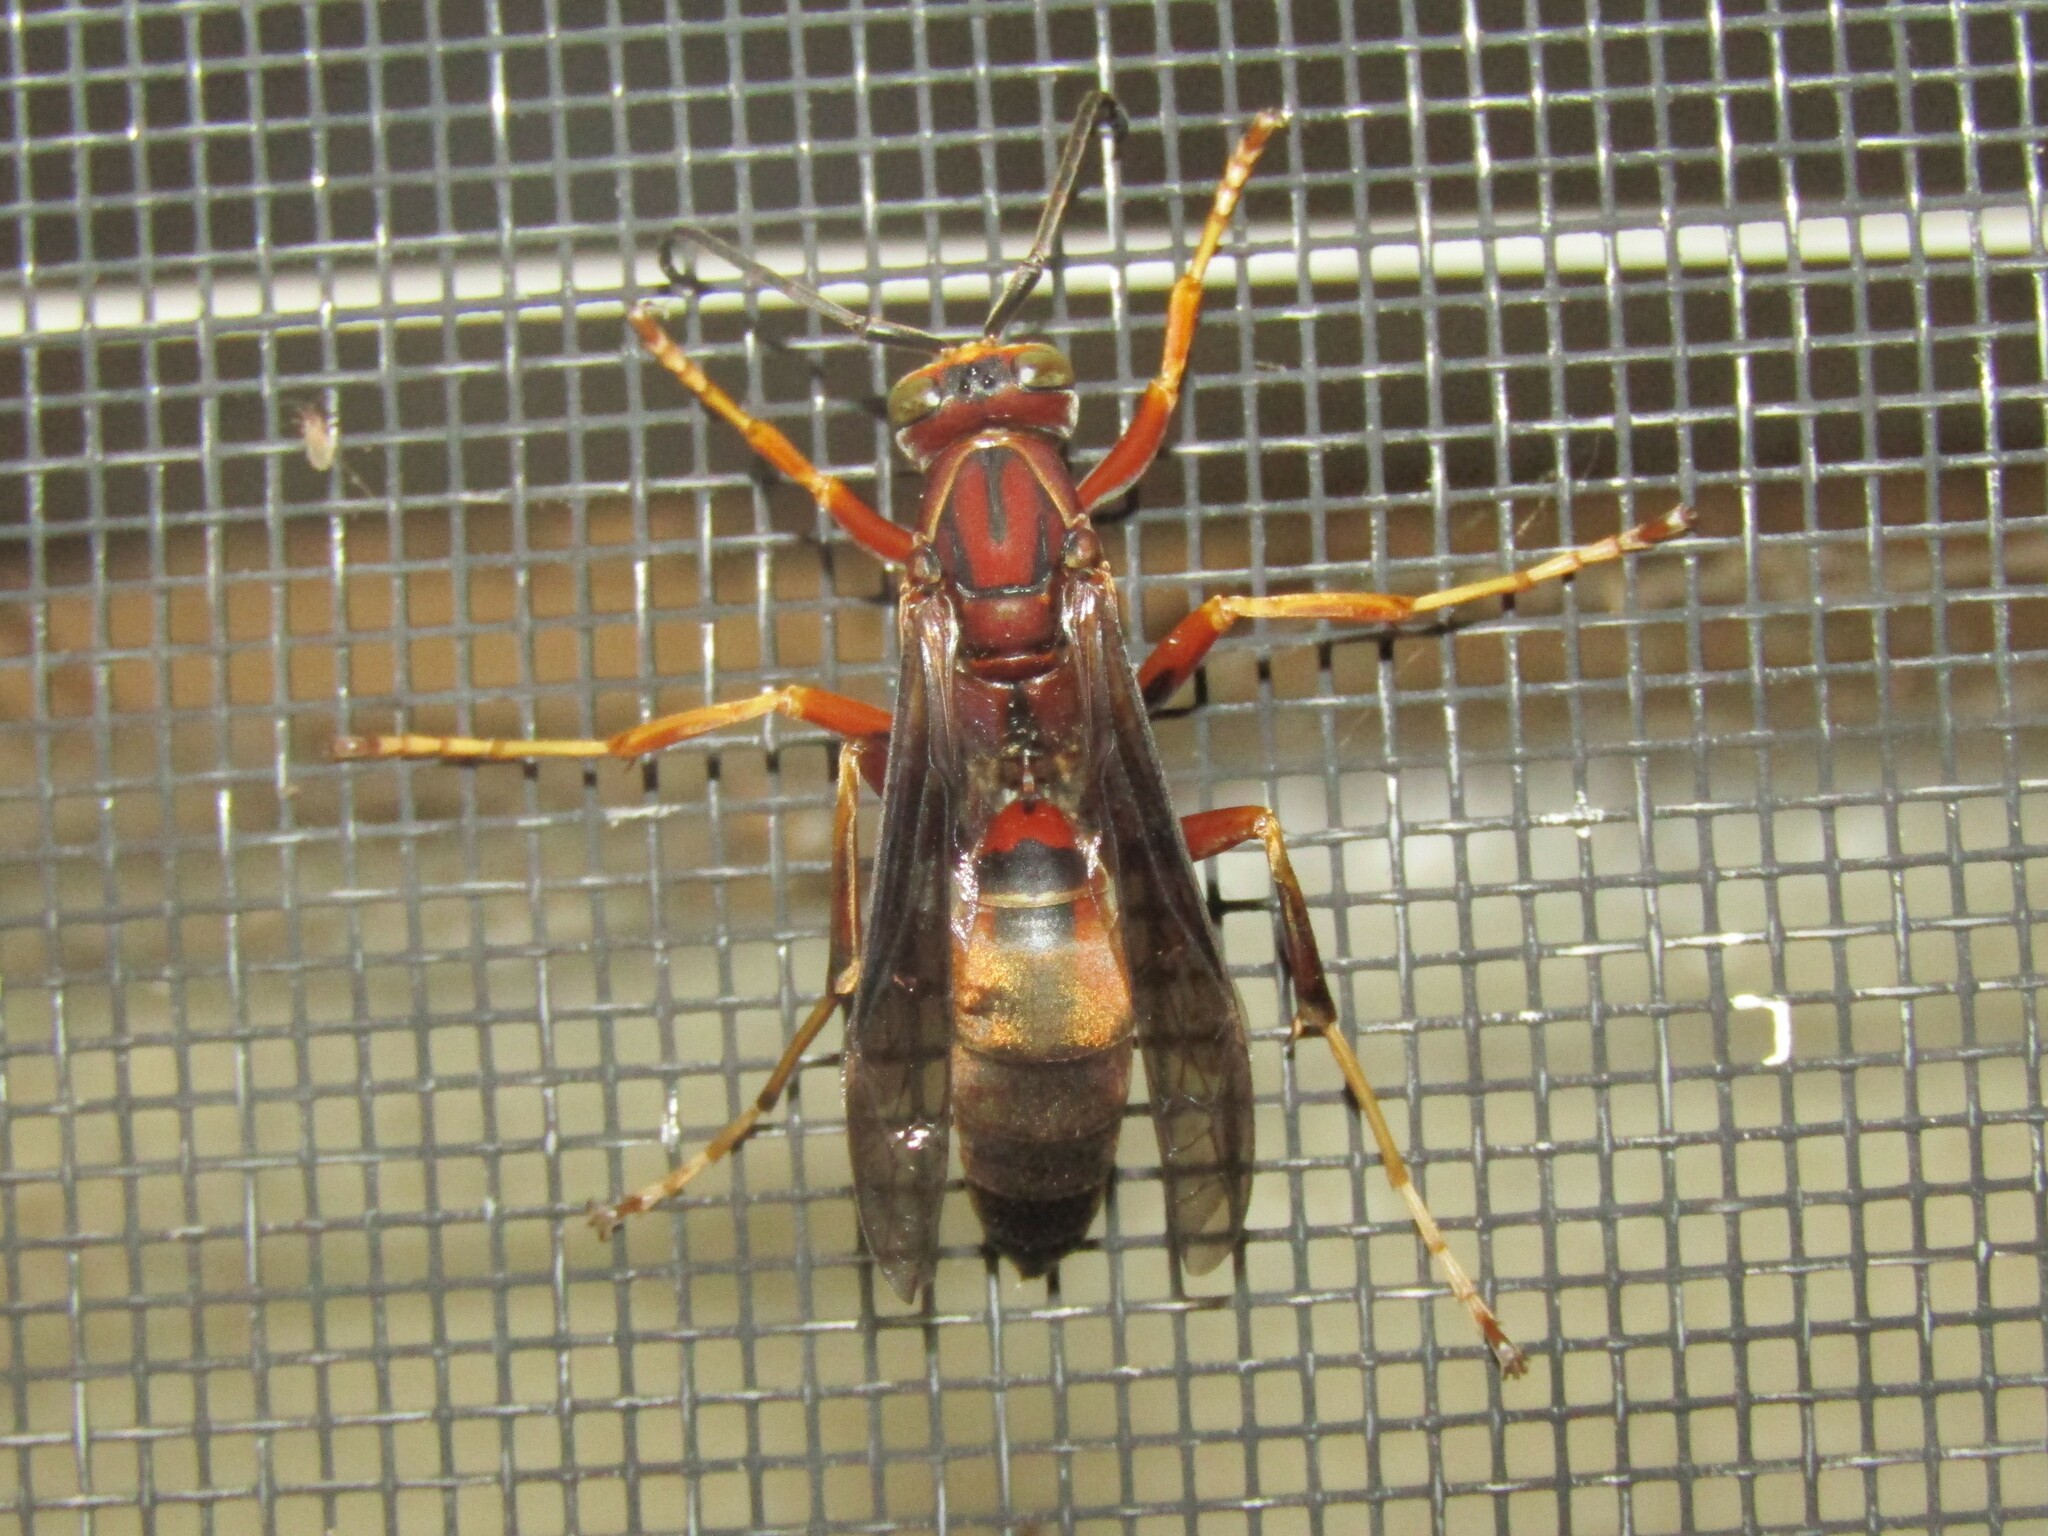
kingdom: Animalia
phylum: Arthropoda
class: Insecta
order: Hymenoptera
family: Eumenidae
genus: Polistes
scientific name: Polistes metricus
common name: Metric paper wasp
